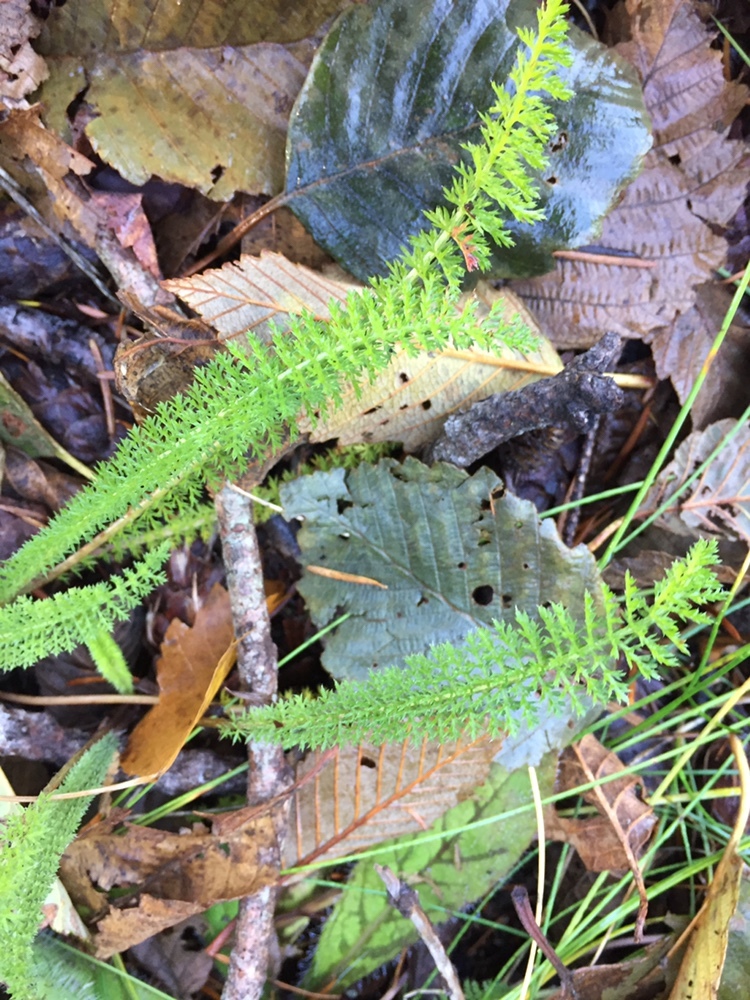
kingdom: Plantae
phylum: Tracheophyta
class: Magnoliopsida
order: Asterales
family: Asteraceae
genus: Achillea
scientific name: Achillea millefolium
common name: Yarrow
